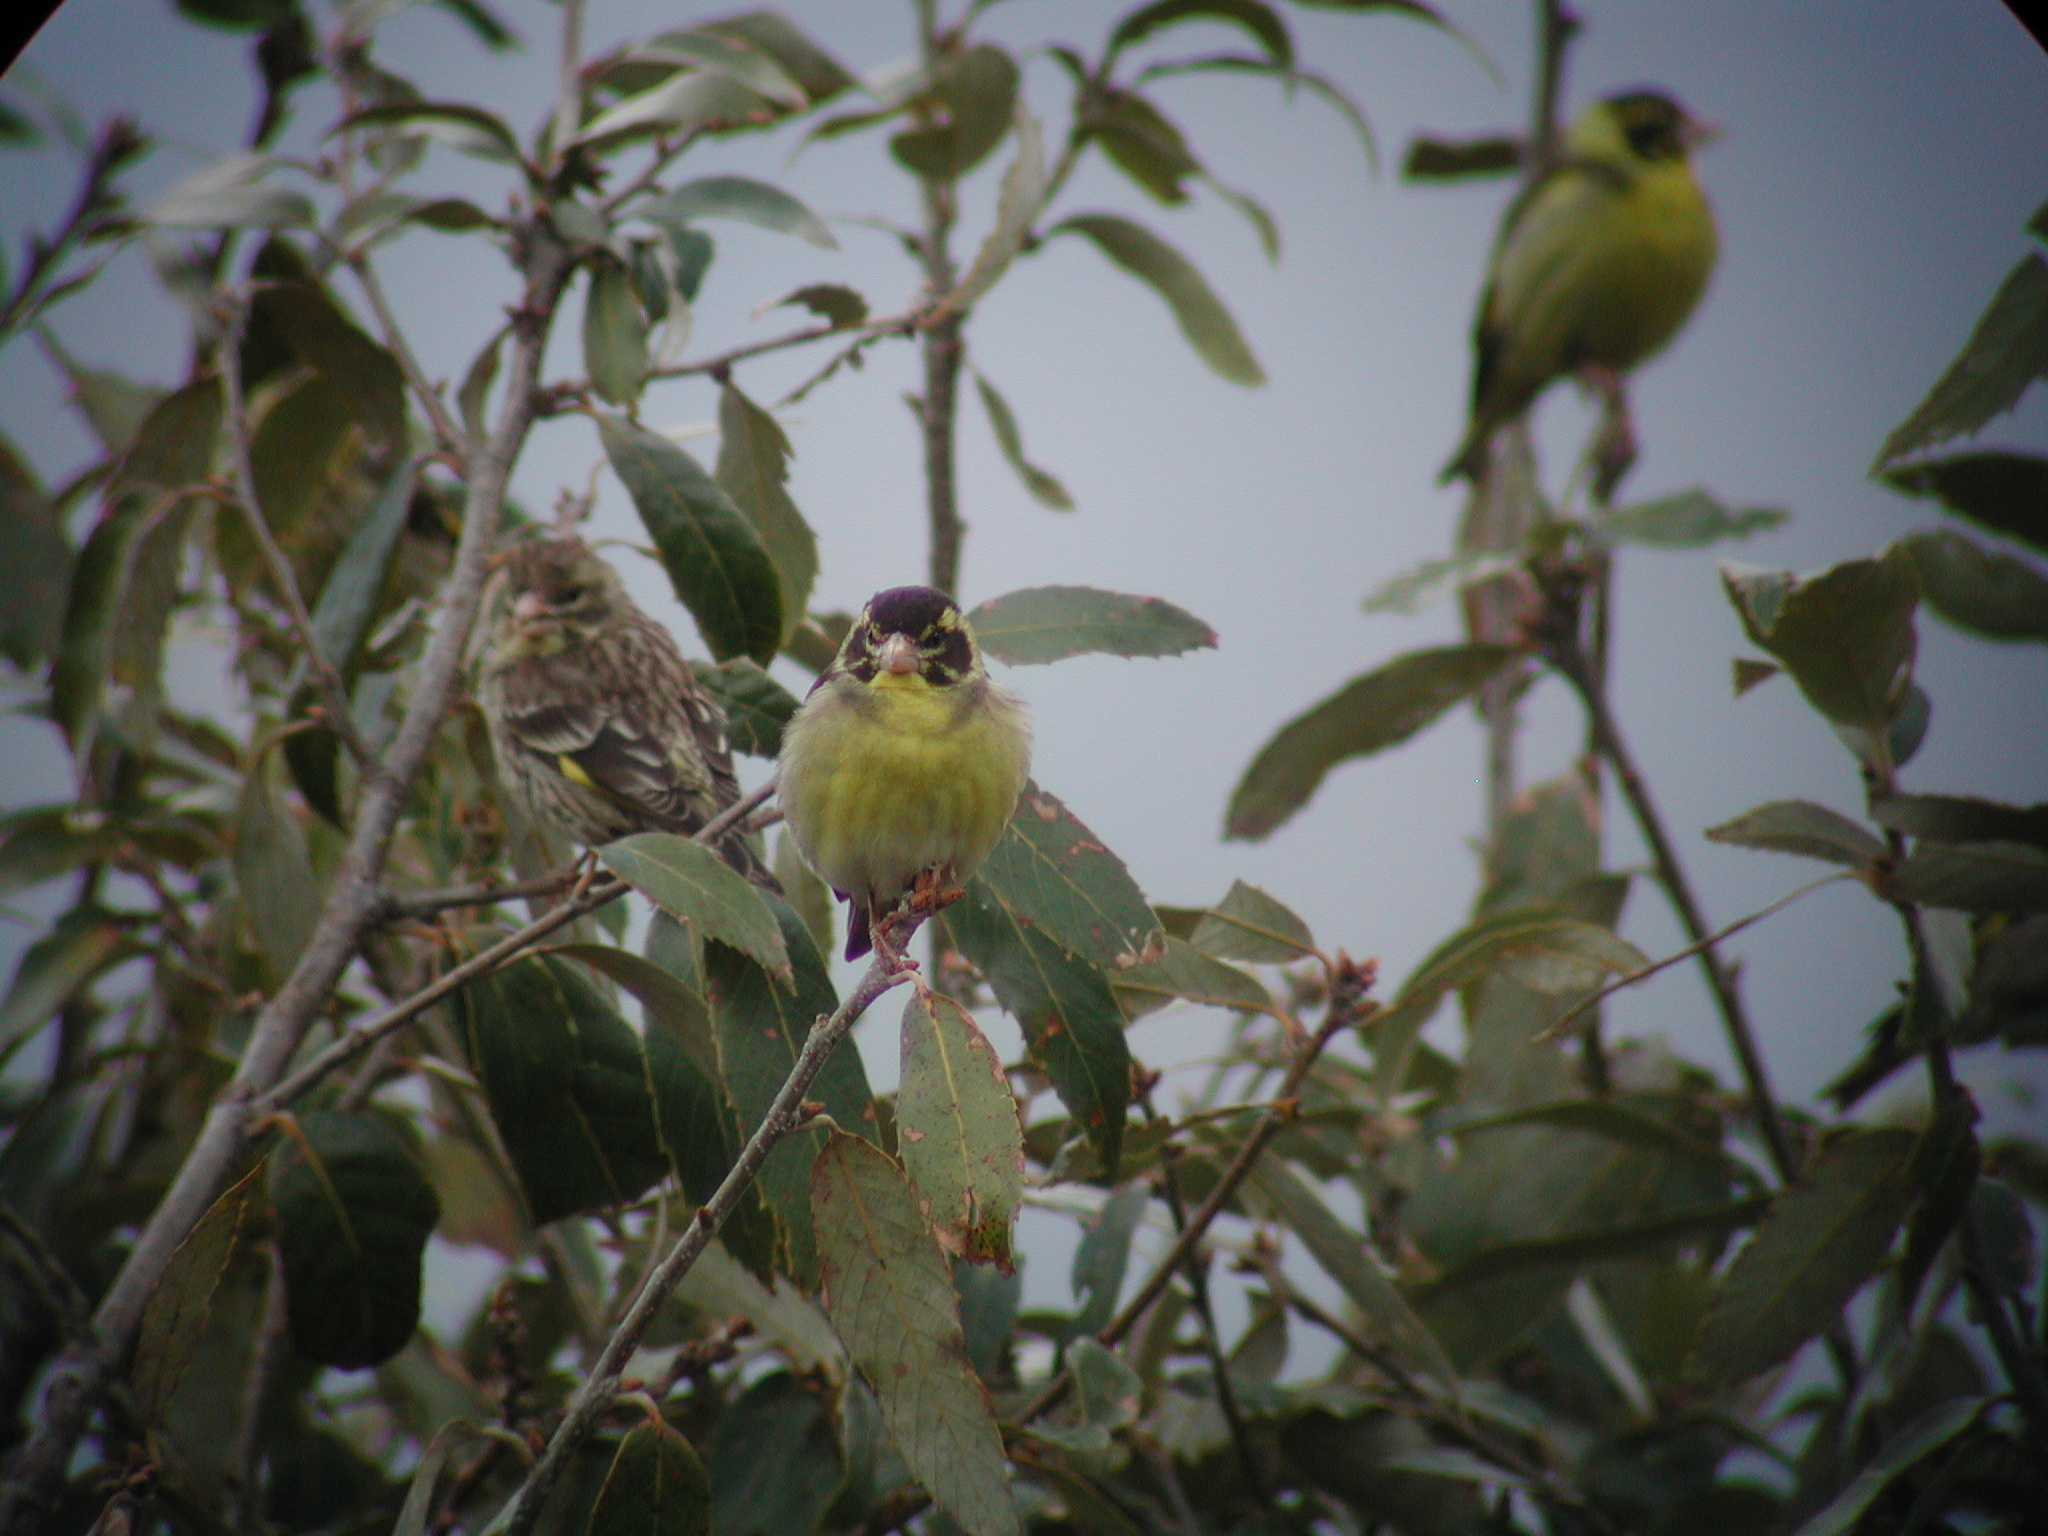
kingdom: Animalia
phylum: Chordata
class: Aves
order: Passeriformes
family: Fringillidae
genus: Chloris
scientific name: Chloris spinoides
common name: Yellow-breasted greenfinch
